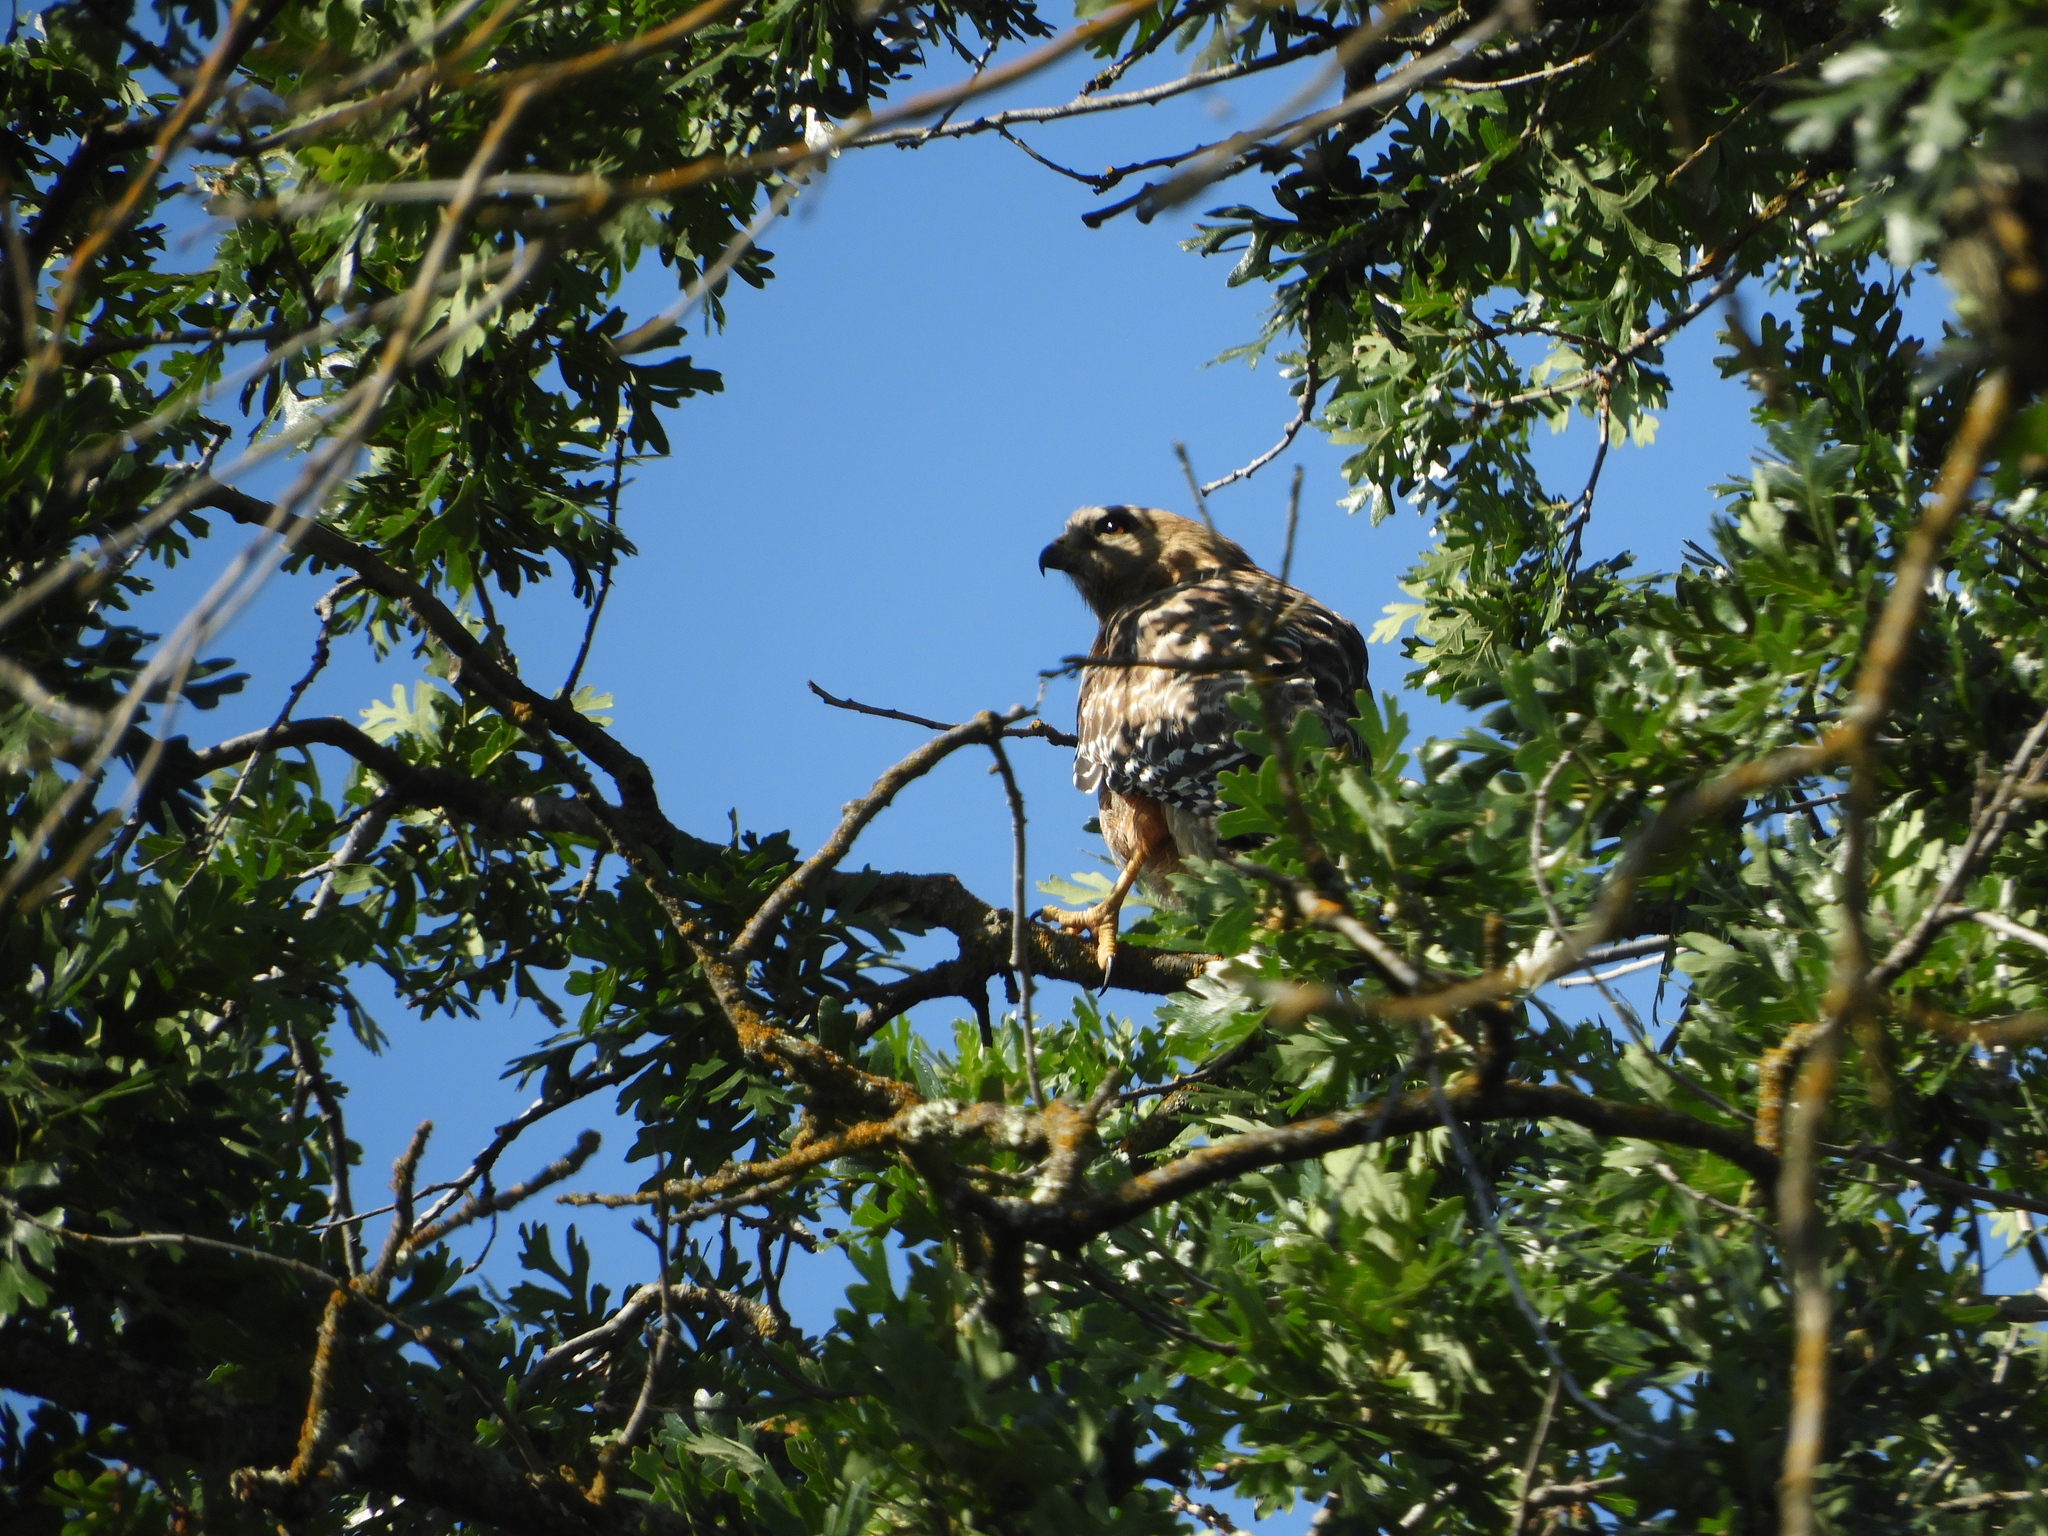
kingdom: Animalia
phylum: Chordata
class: Aves
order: Accipitriformes
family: Accipitridae
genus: Buteo
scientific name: Buteo lineatus
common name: Red-shouldered hawk
